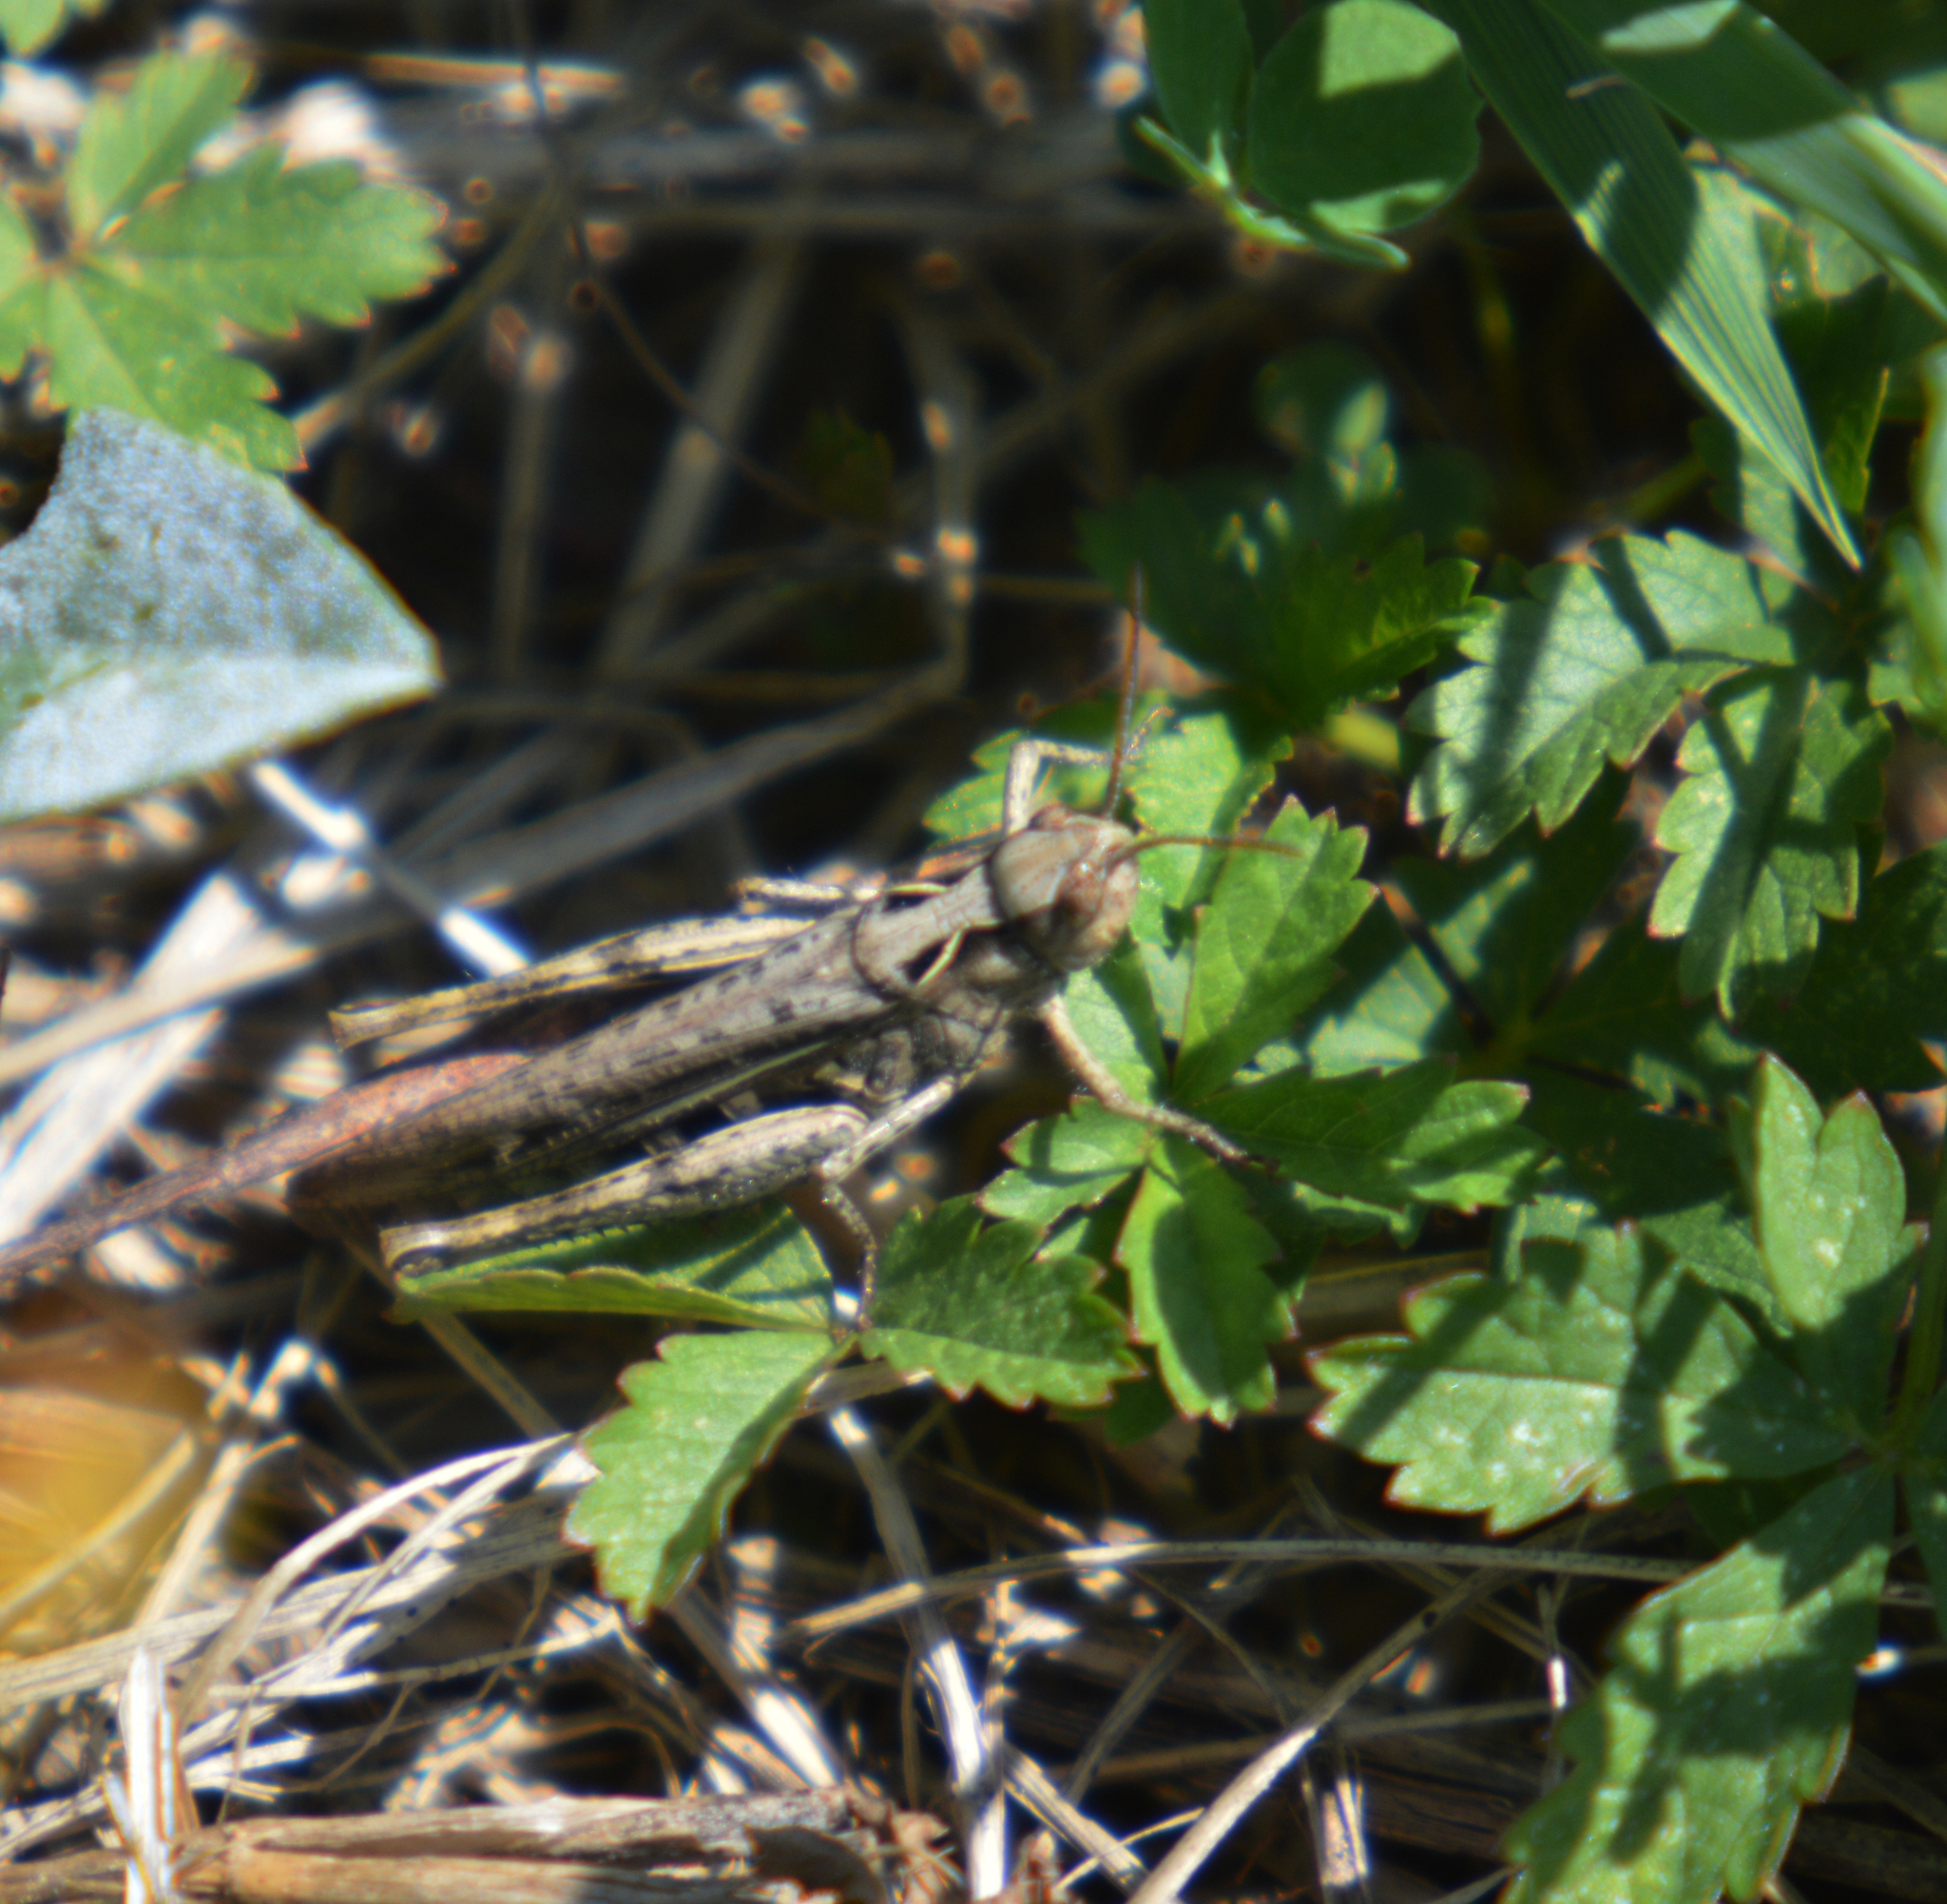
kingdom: Animalia
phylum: Arthropoda
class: Insecta
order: Orthoptera
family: Acrididae
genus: Glyptobothrus
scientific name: Glyptobothrus
